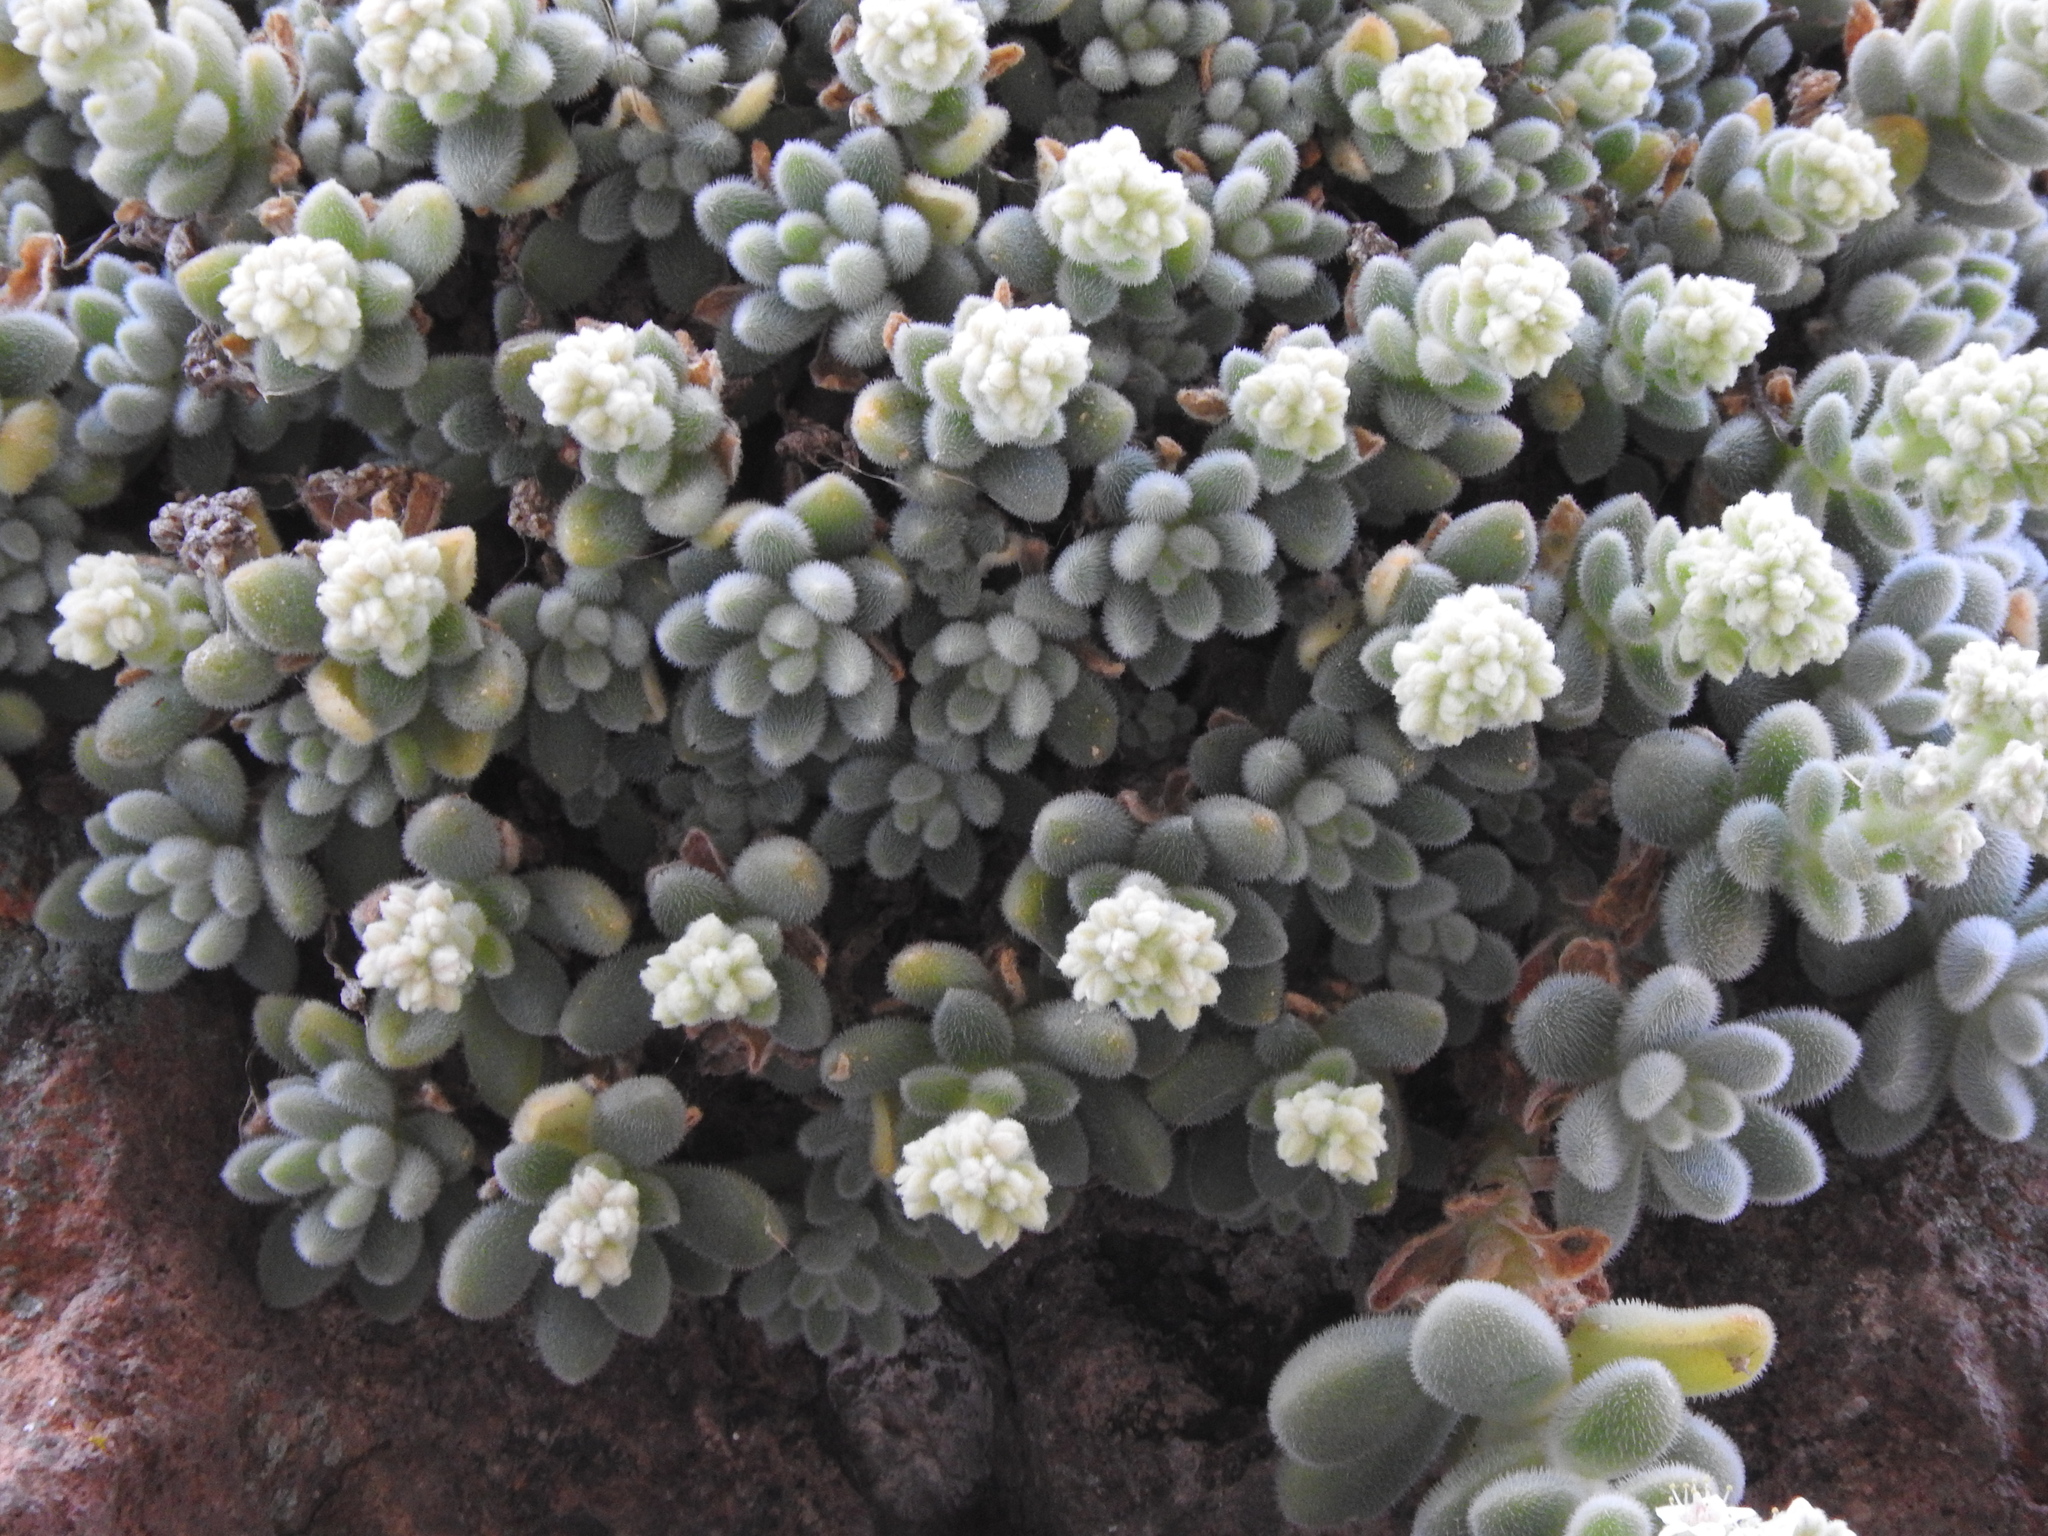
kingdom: Plantae
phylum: Tracheophyta
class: Magnoliopsida
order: Saxifragales
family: Crassulaceae
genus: Sedum
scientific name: Sedum mocinoanum
